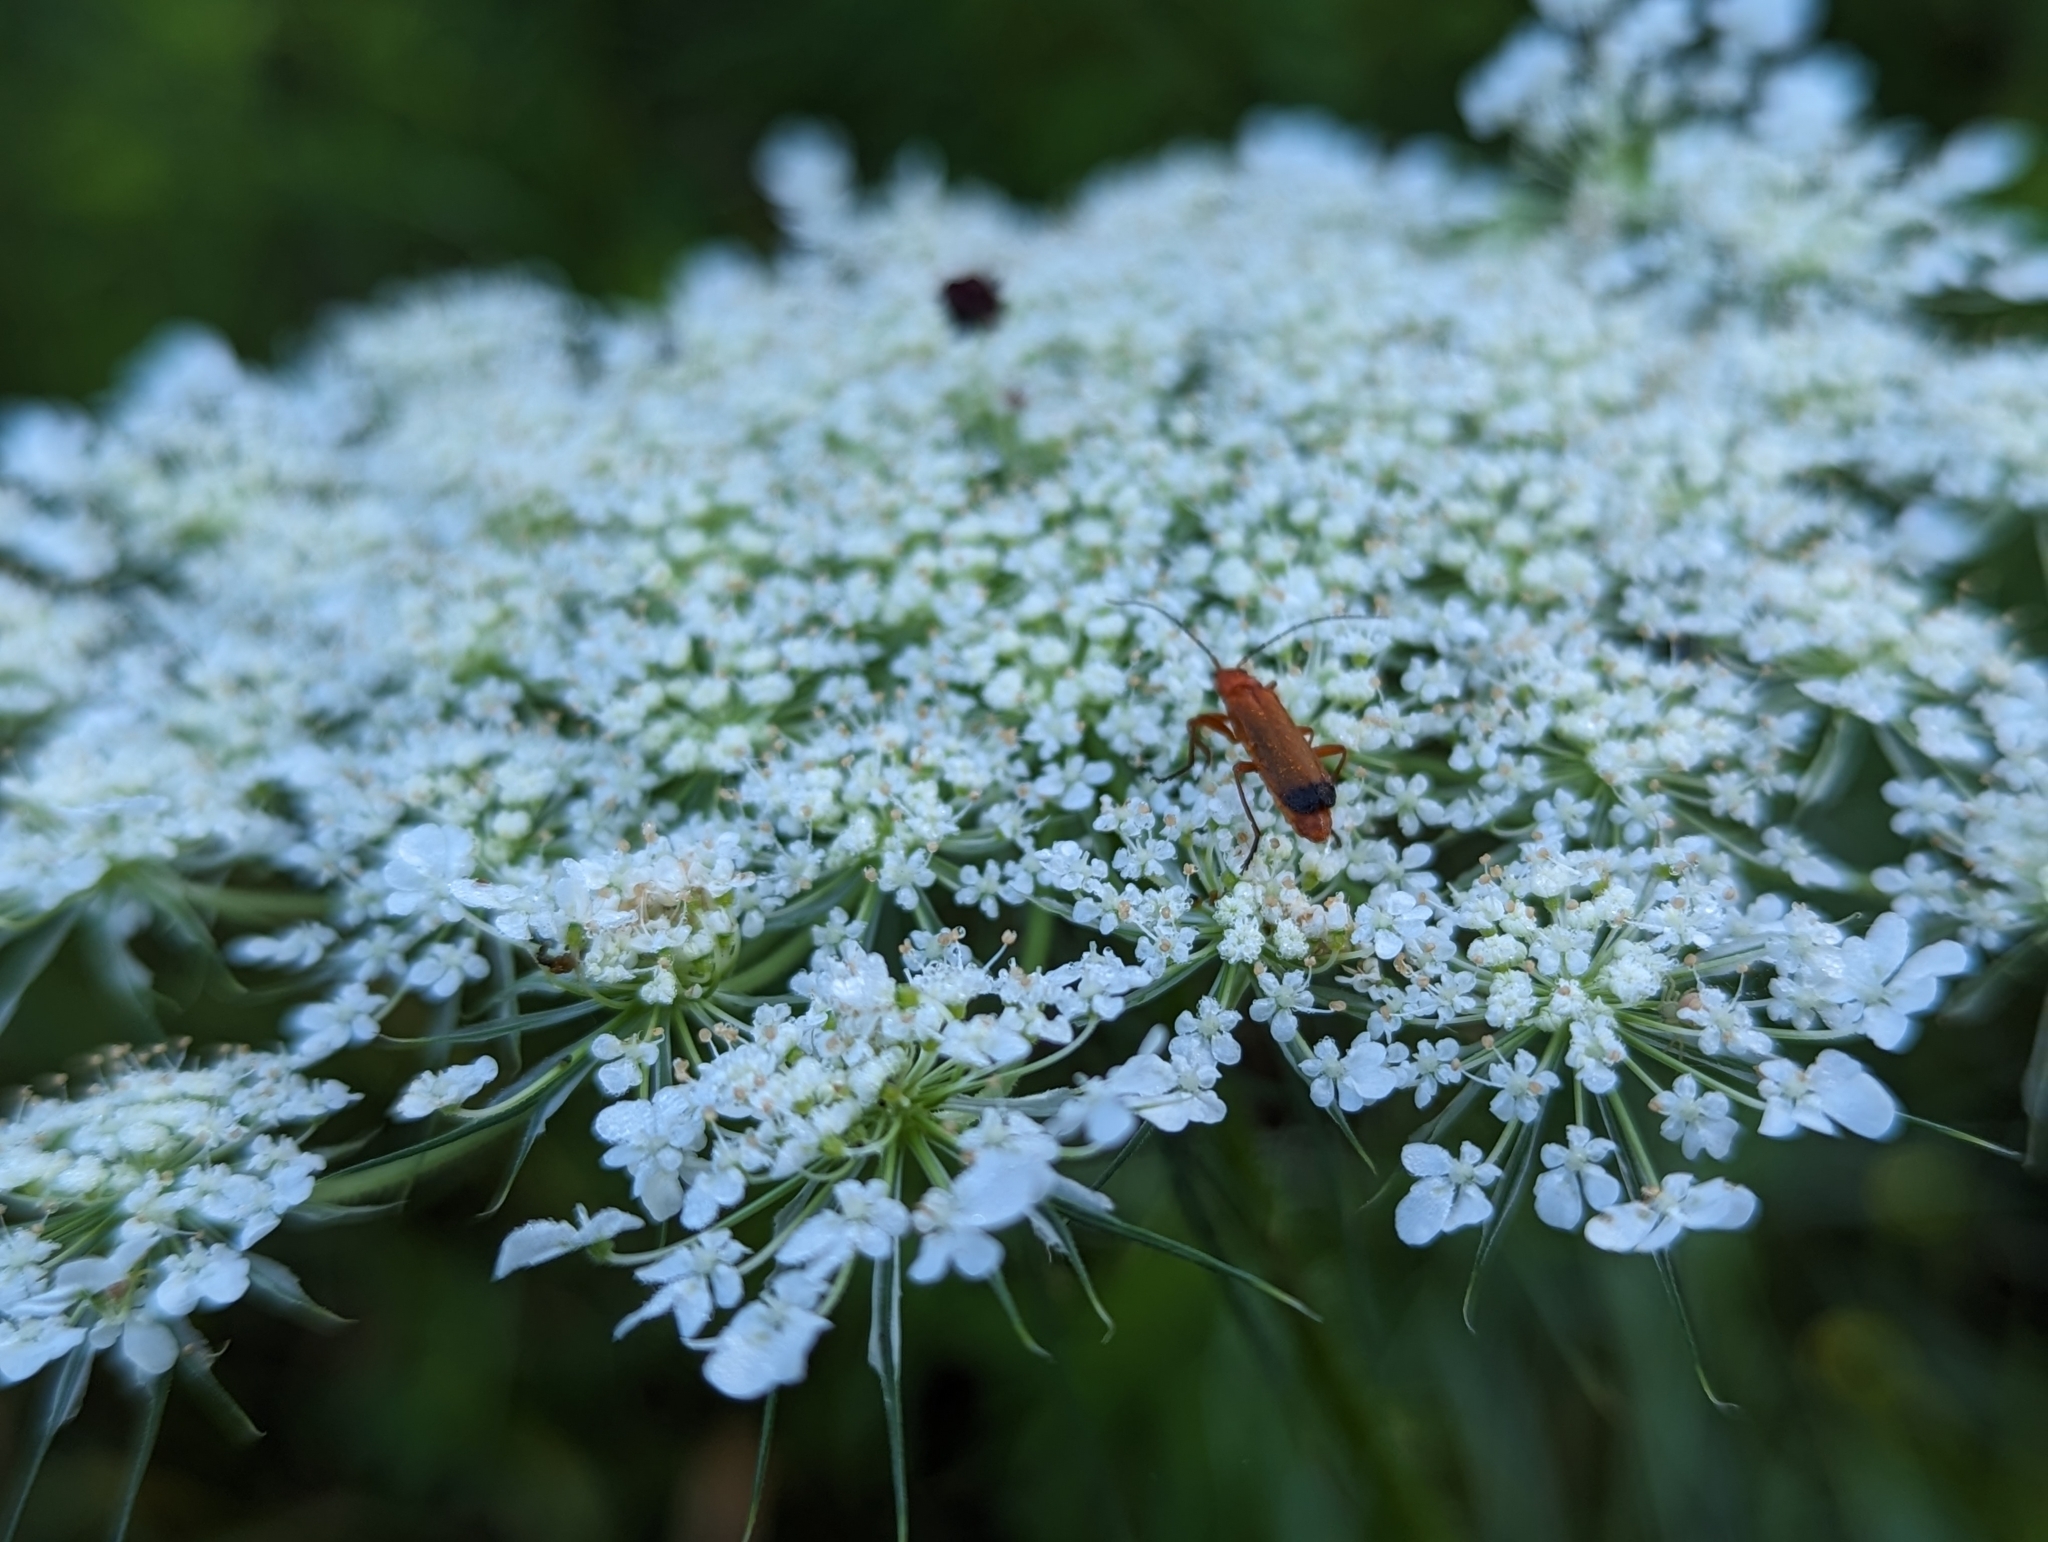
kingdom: Plantae
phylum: Tracheophyta
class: Magnoliopsida
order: Apiales
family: Apiaceae
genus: Daucus
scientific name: Daucus carota
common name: Wild carrot
